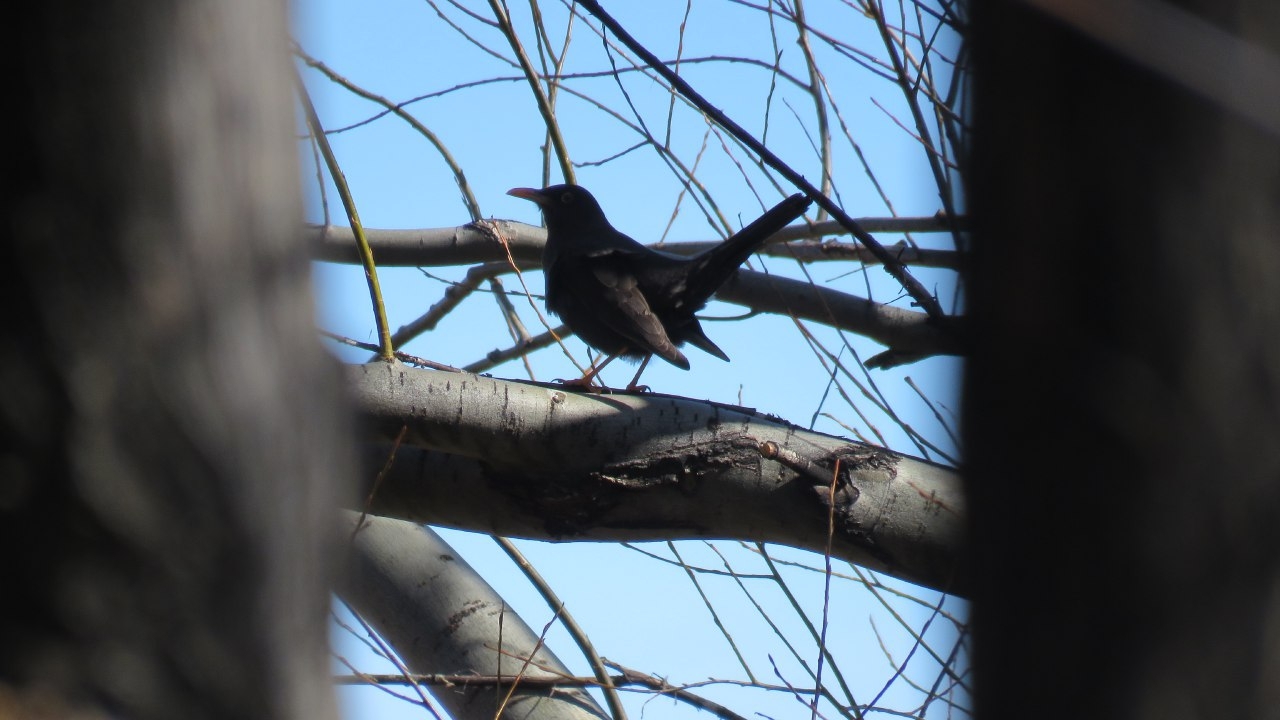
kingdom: Animalia
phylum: Chordata
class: Aves
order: Passeriformes
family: Turdidae
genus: Turdus
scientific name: Turdus chiguanco
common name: Chiguanco thrush
